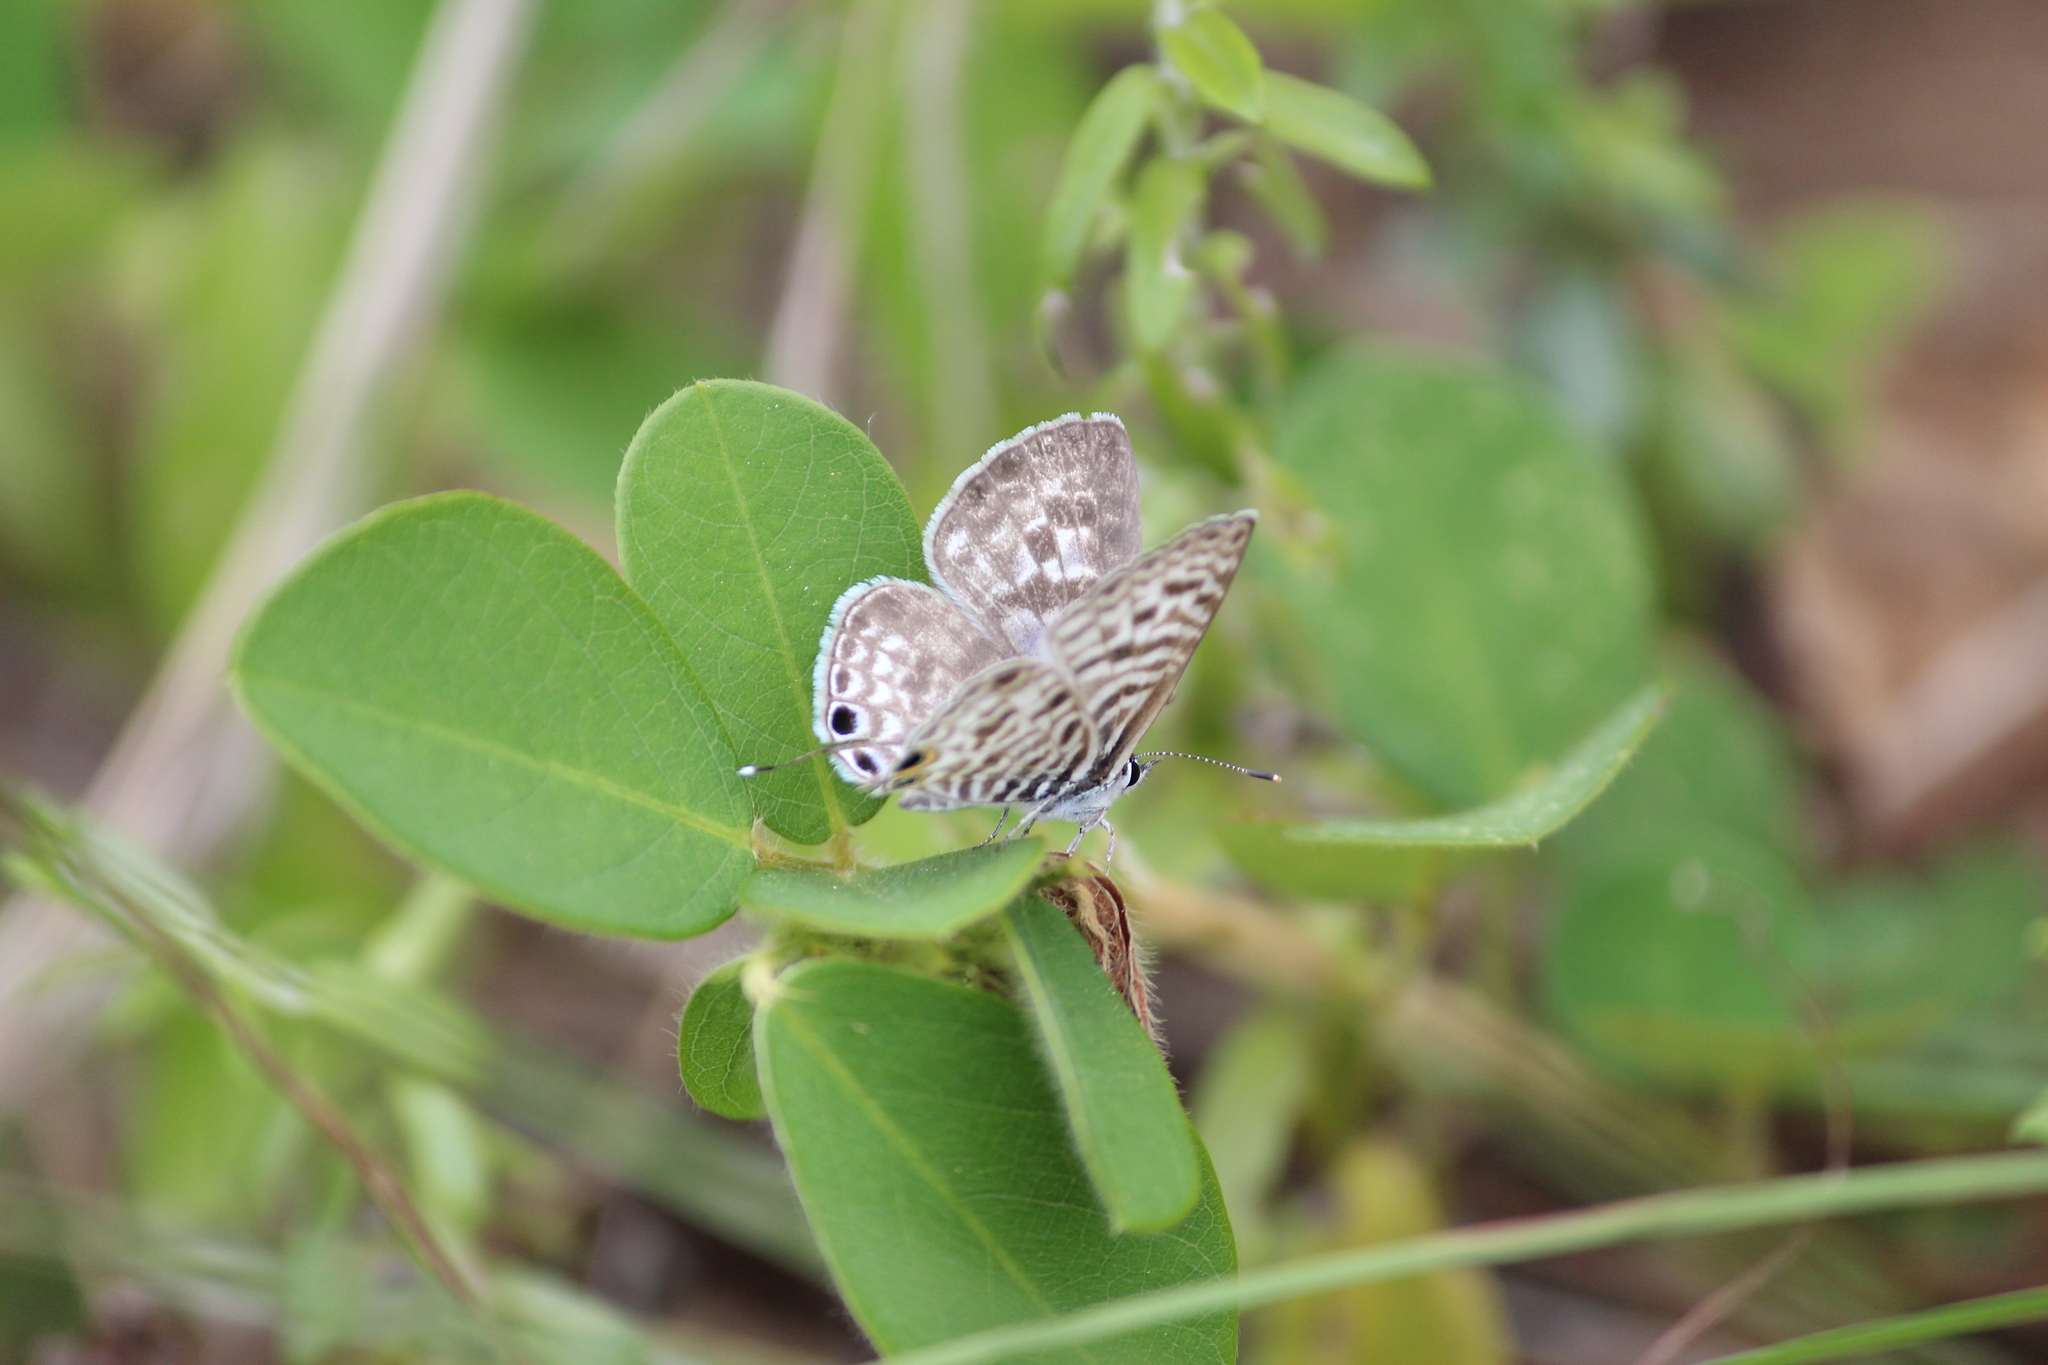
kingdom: Animalia
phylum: Arthropoda
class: Insecta
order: Lepidoptera
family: Lycaenidae
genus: Leptotes
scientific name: Leptotes
